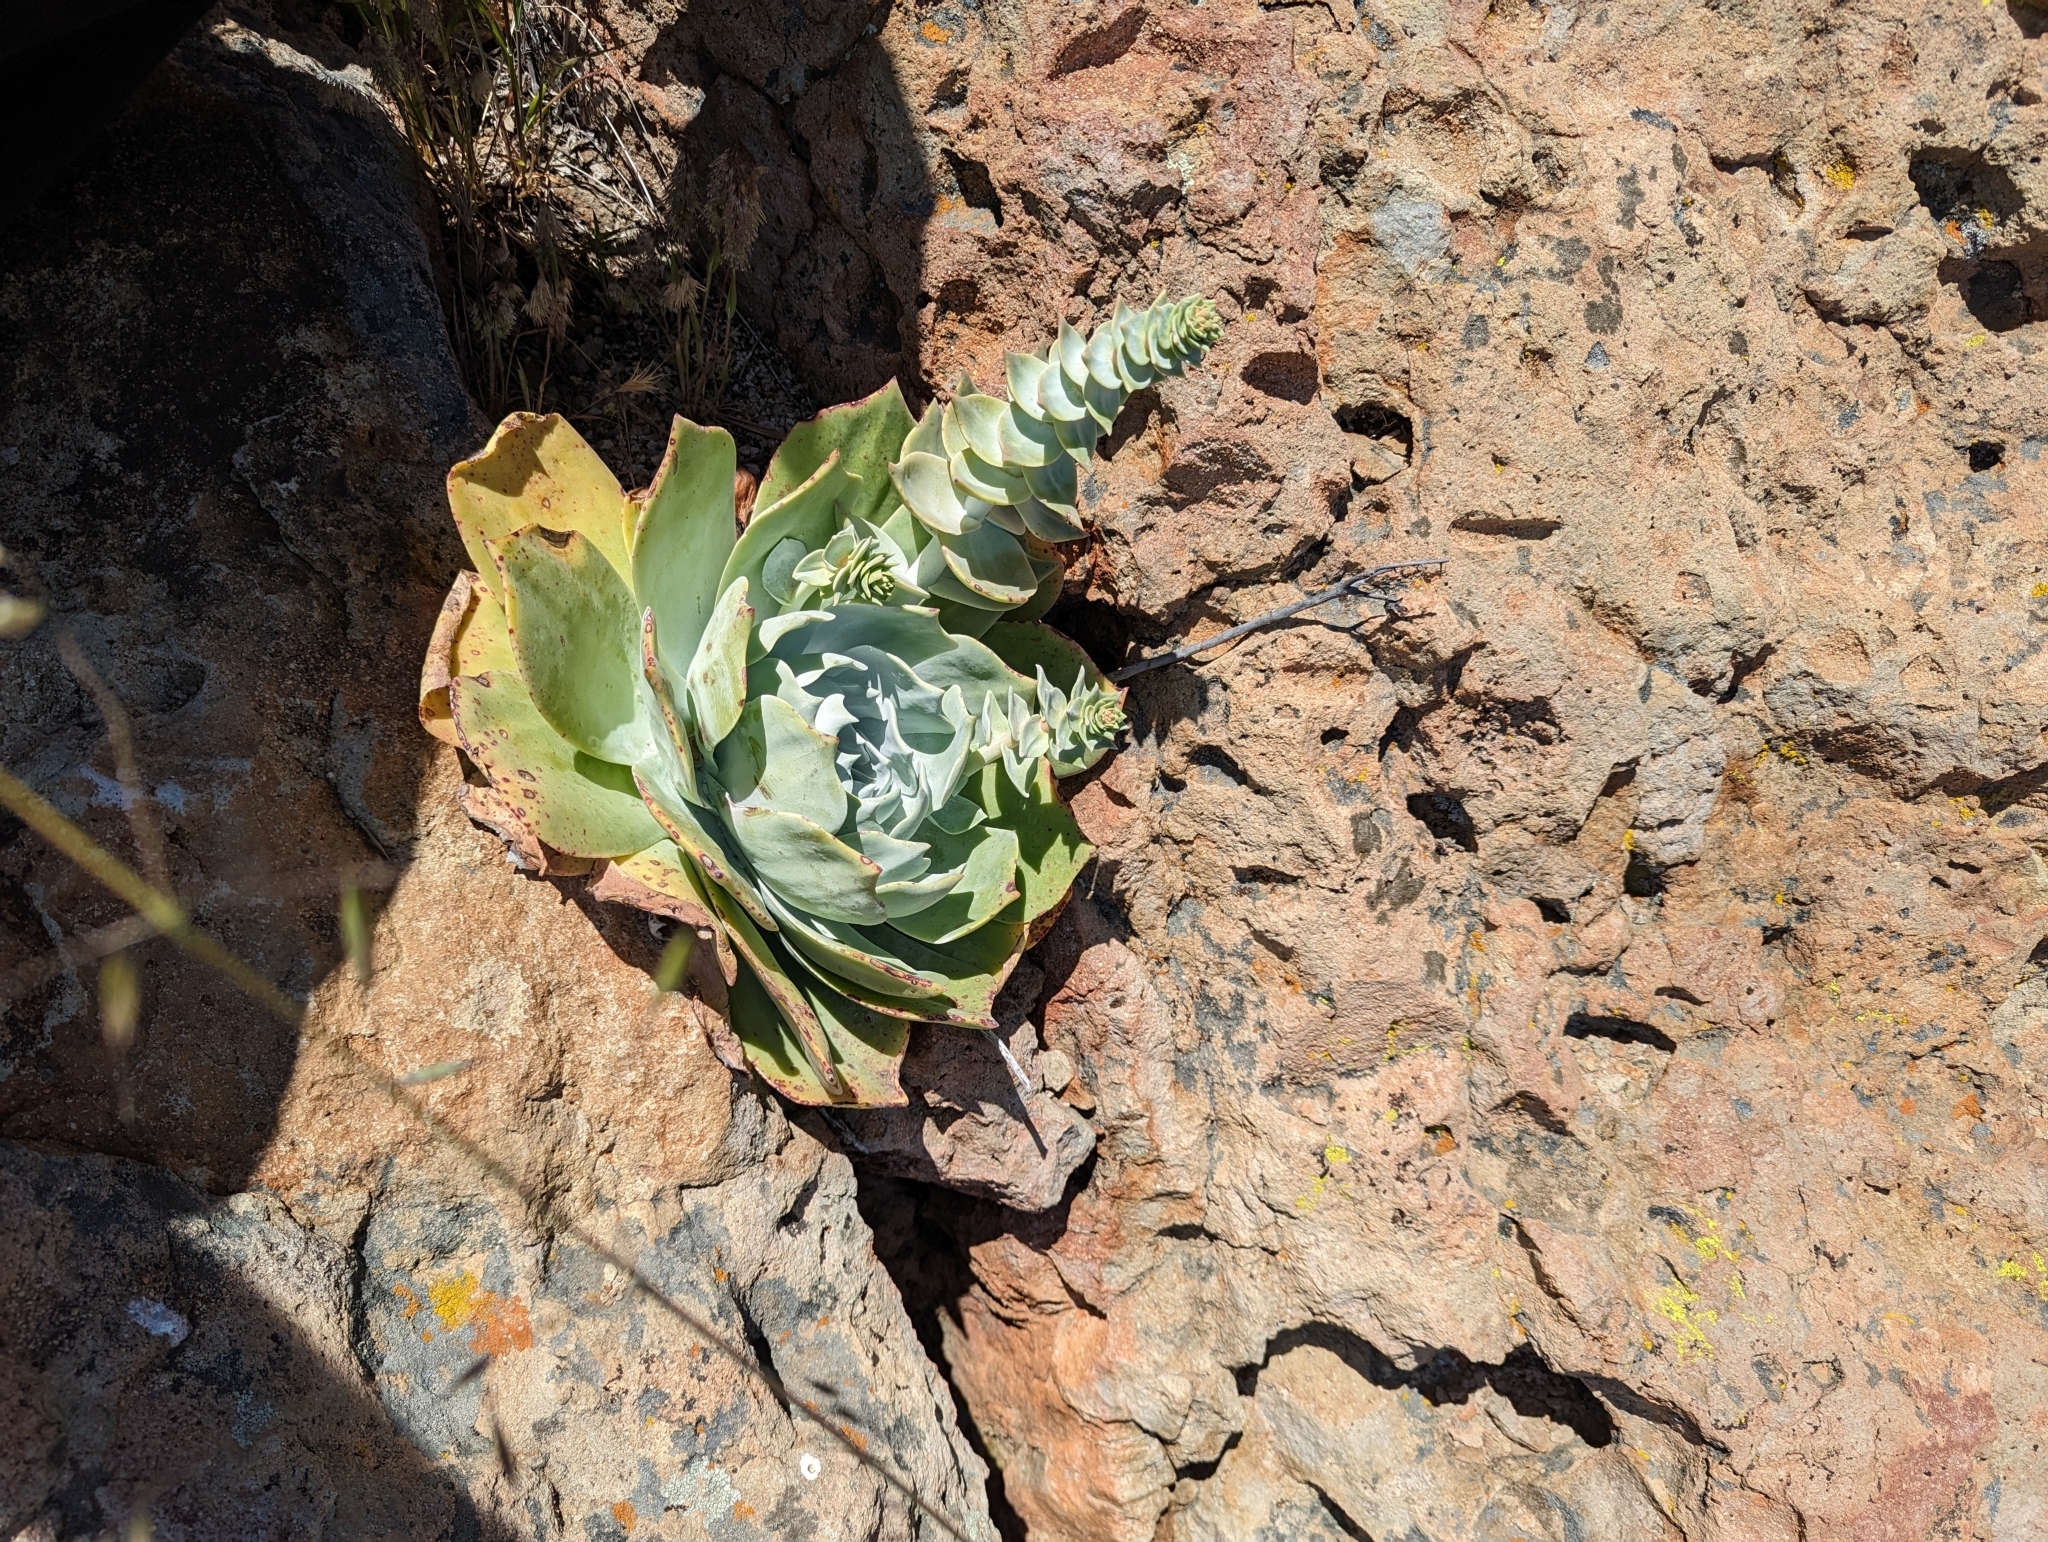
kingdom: Plantae
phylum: Tracheophyta
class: Magnoliopsida
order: Saxifragales
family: Crassulaceae
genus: Dudleya
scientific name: Dudleya pulverulenta
